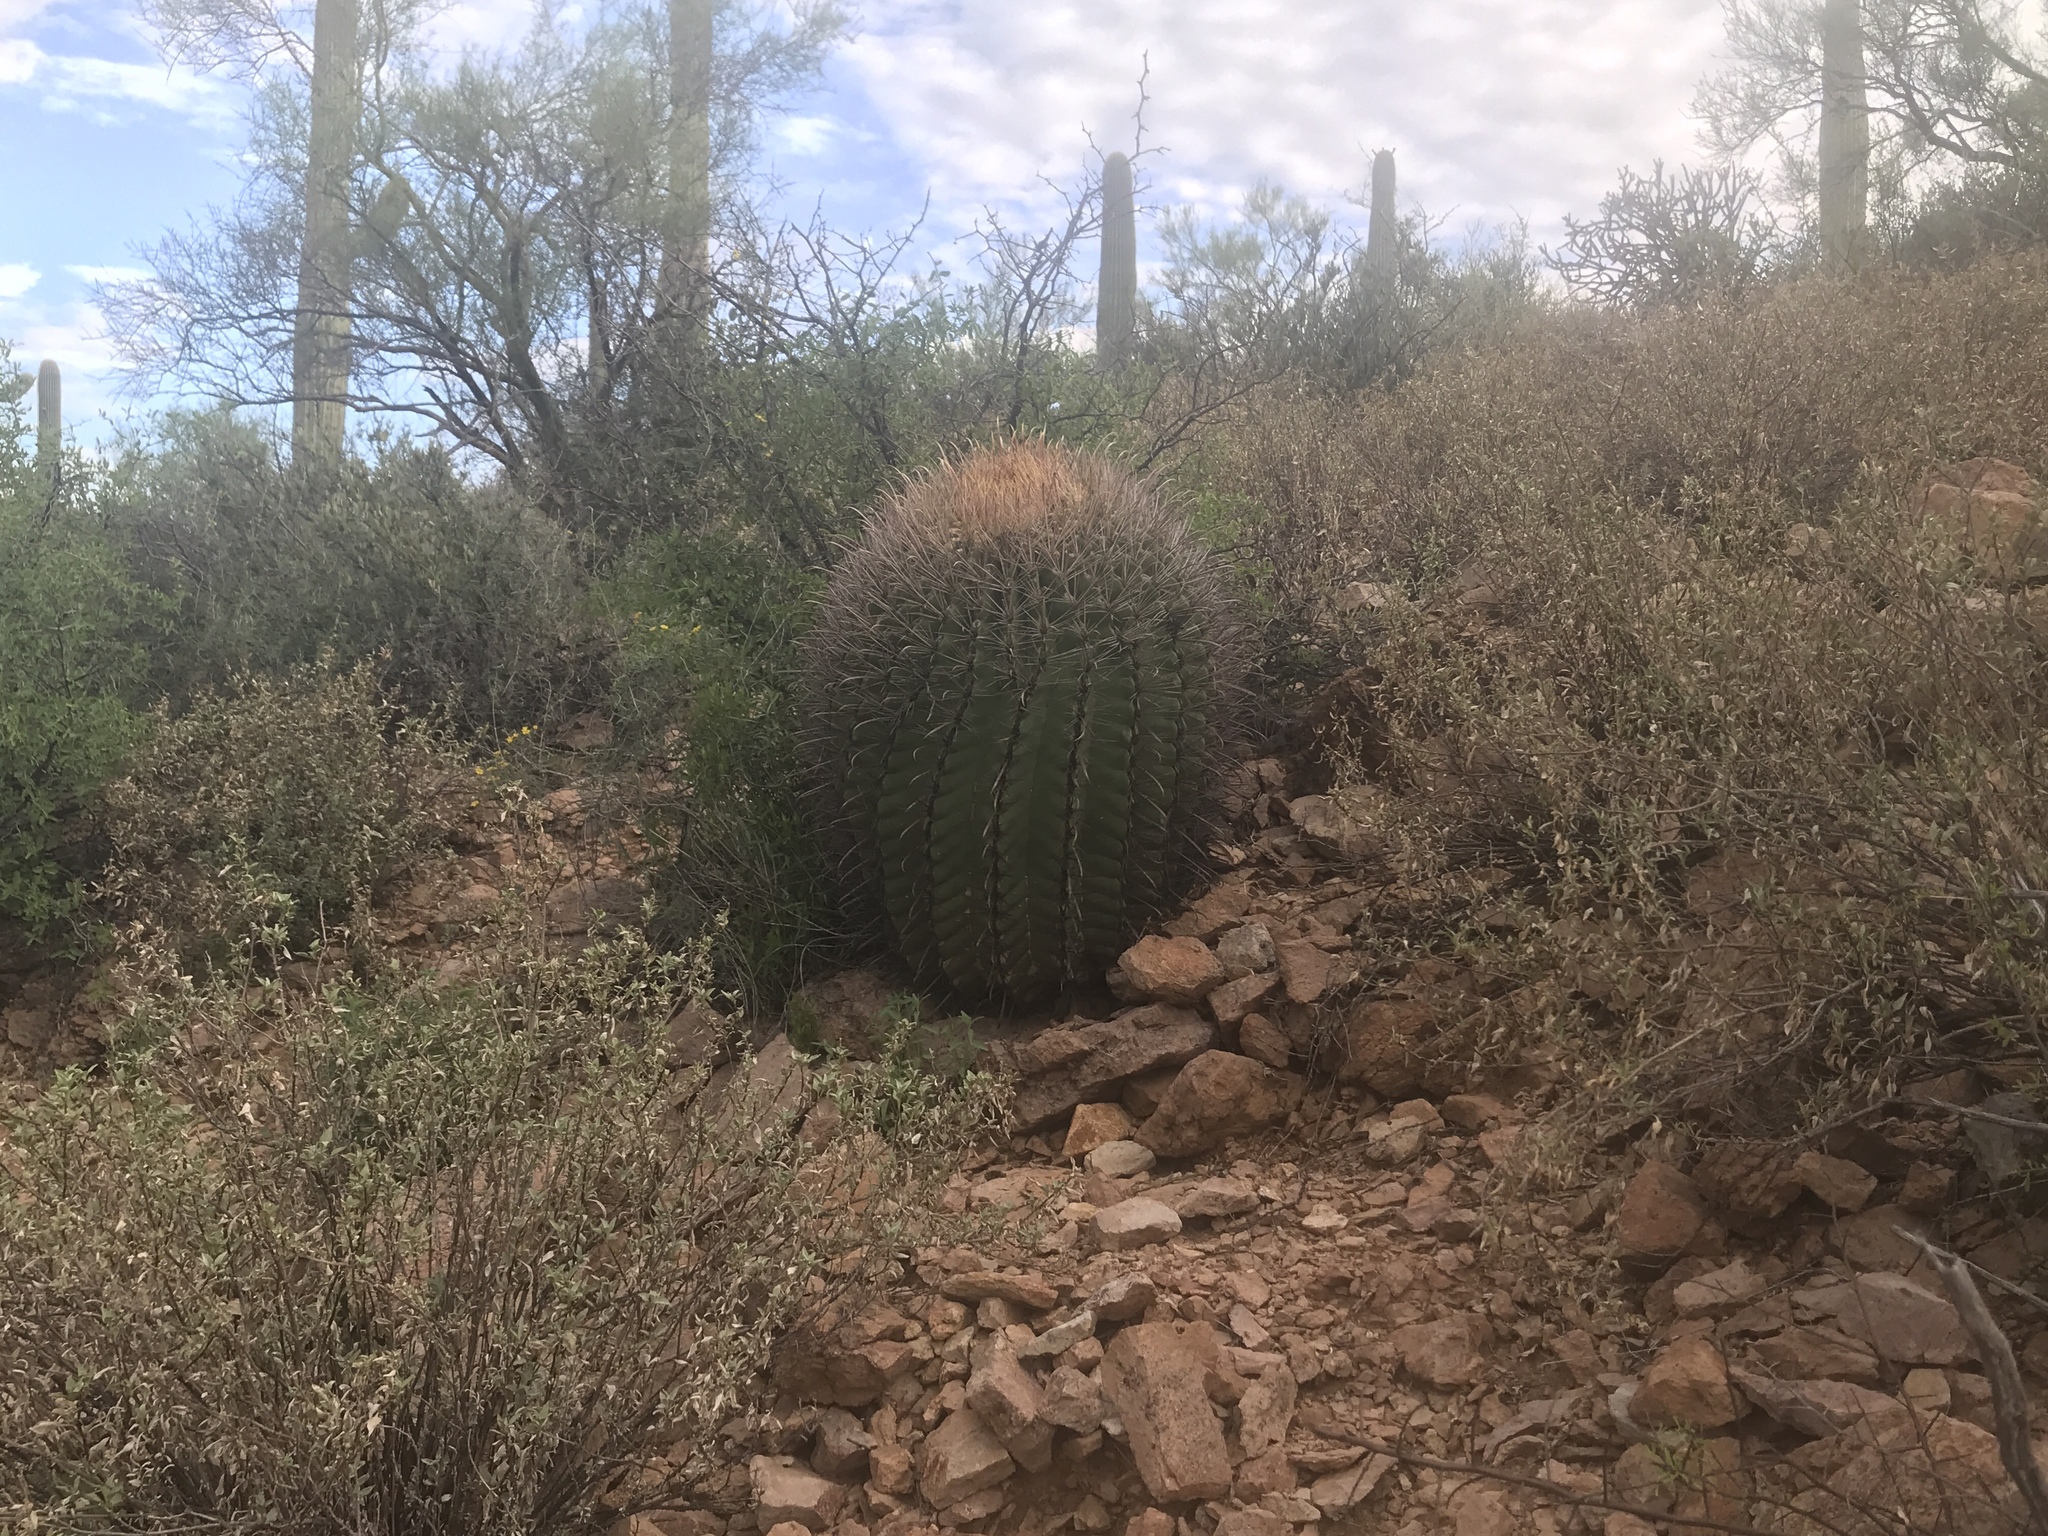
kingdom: Plantae
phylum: Tracheophyta
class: Magnoliopsida
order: Caryophyllales
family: Cactaceae
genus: Ferocactus
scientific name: Ferocactus wislizeni
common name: Candy barrel cactus
